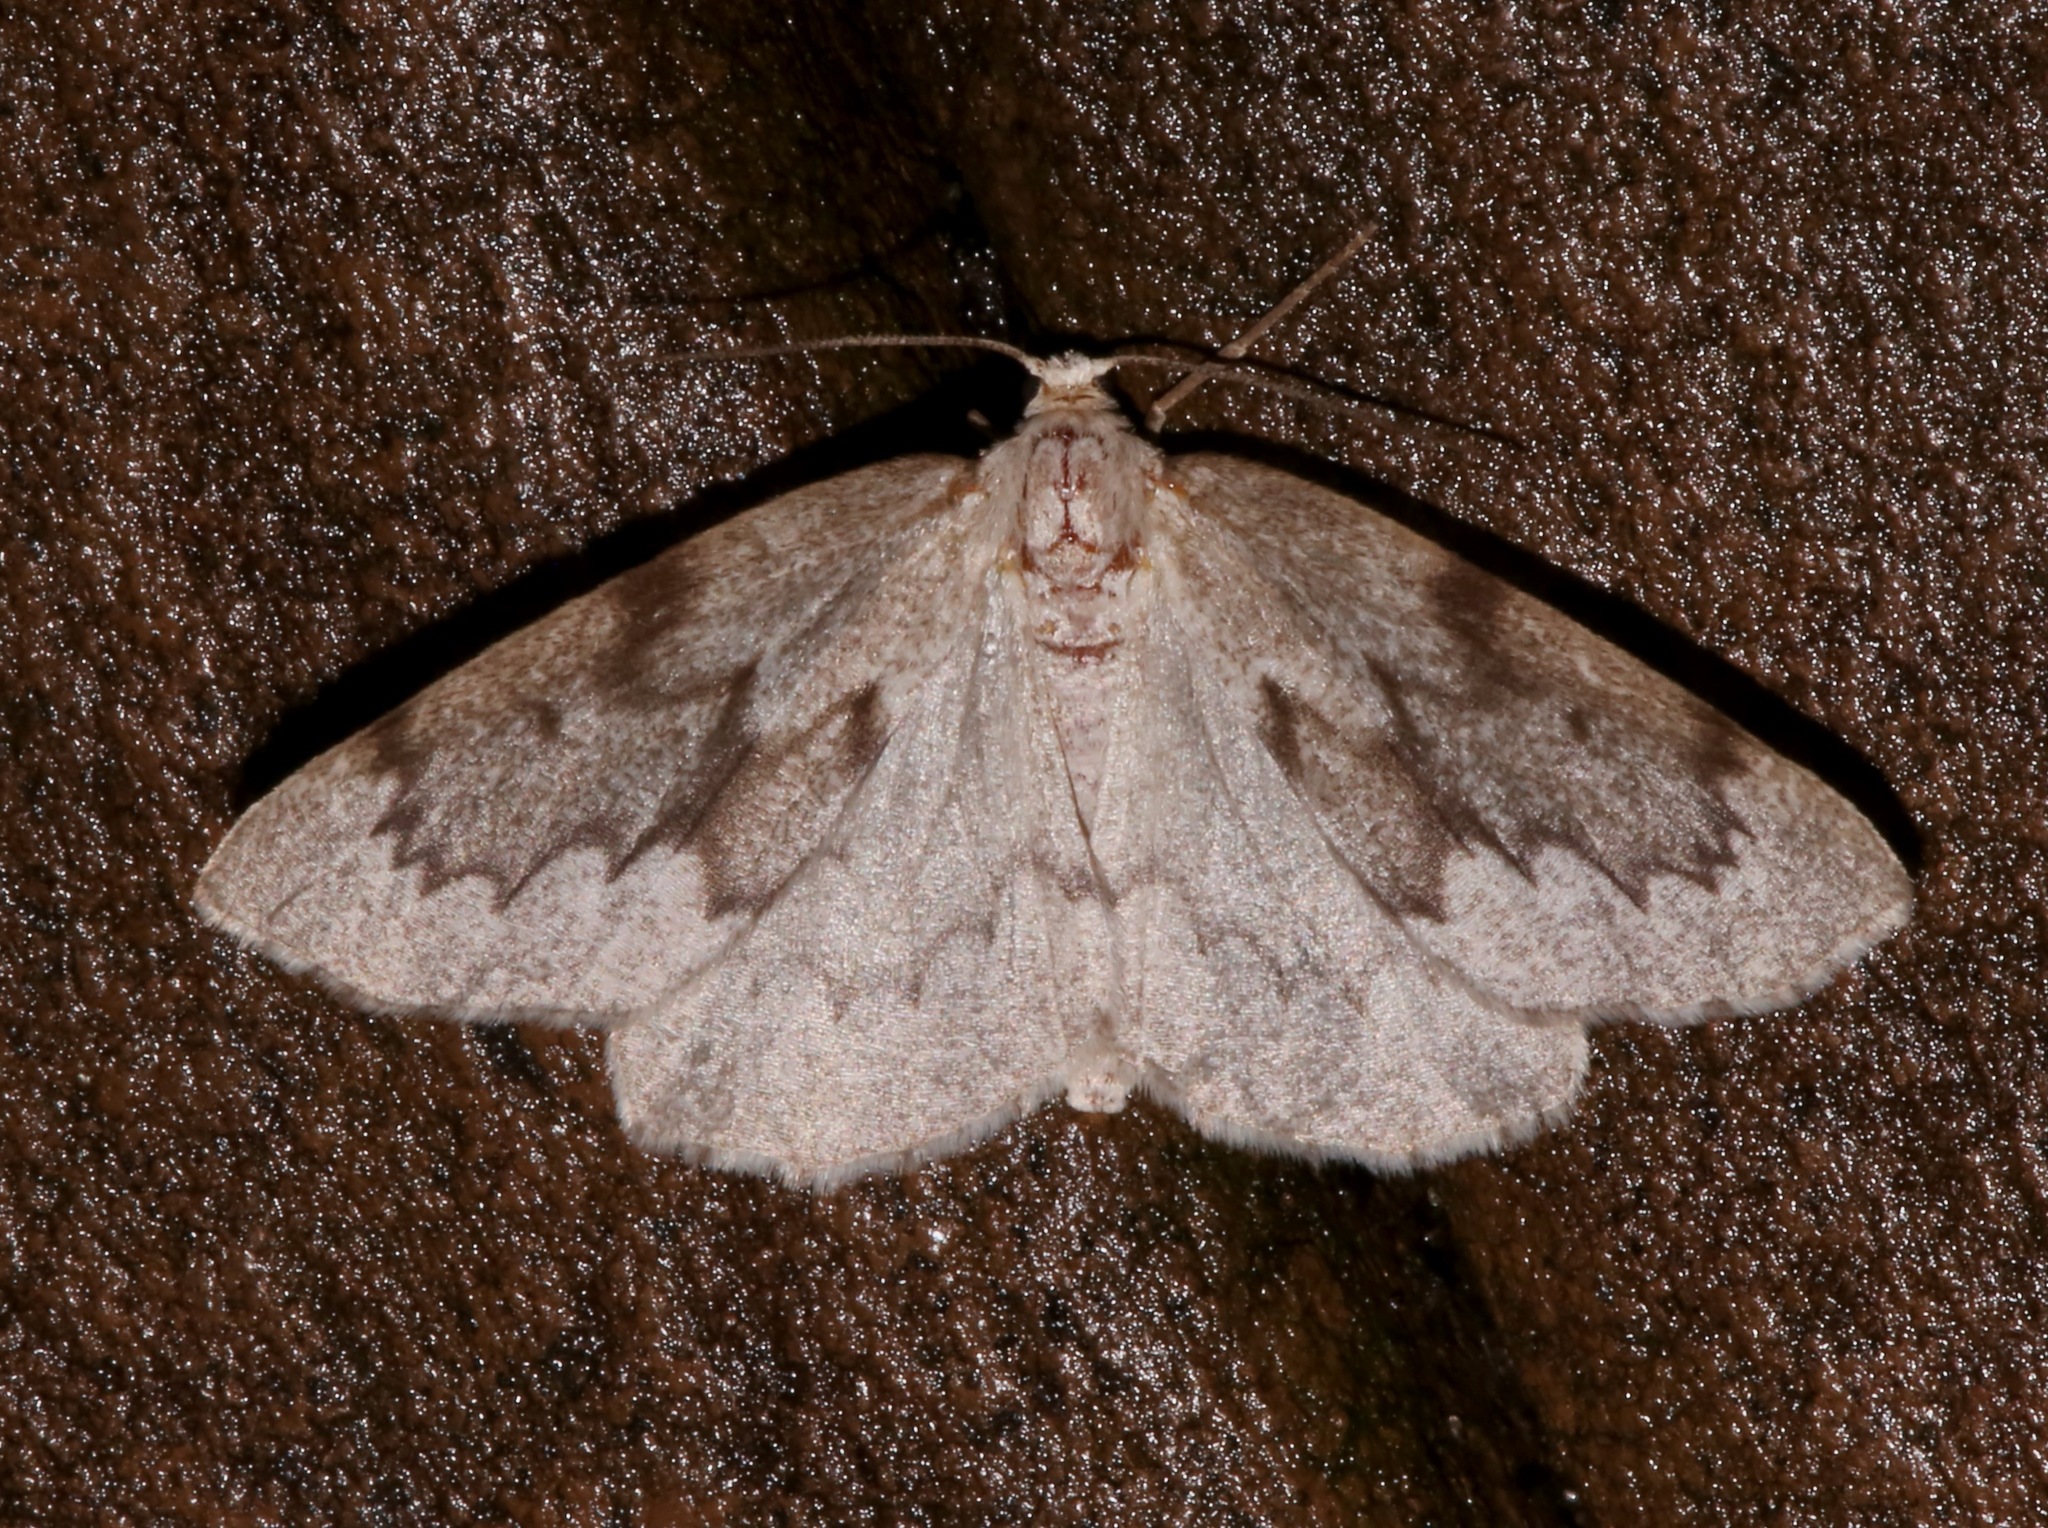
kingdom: Animalia
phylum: Arthropoda
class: Insecta
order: Lepidoptera
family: Geometridae
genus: Nepytia
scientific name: Nepytia semiclusaria
